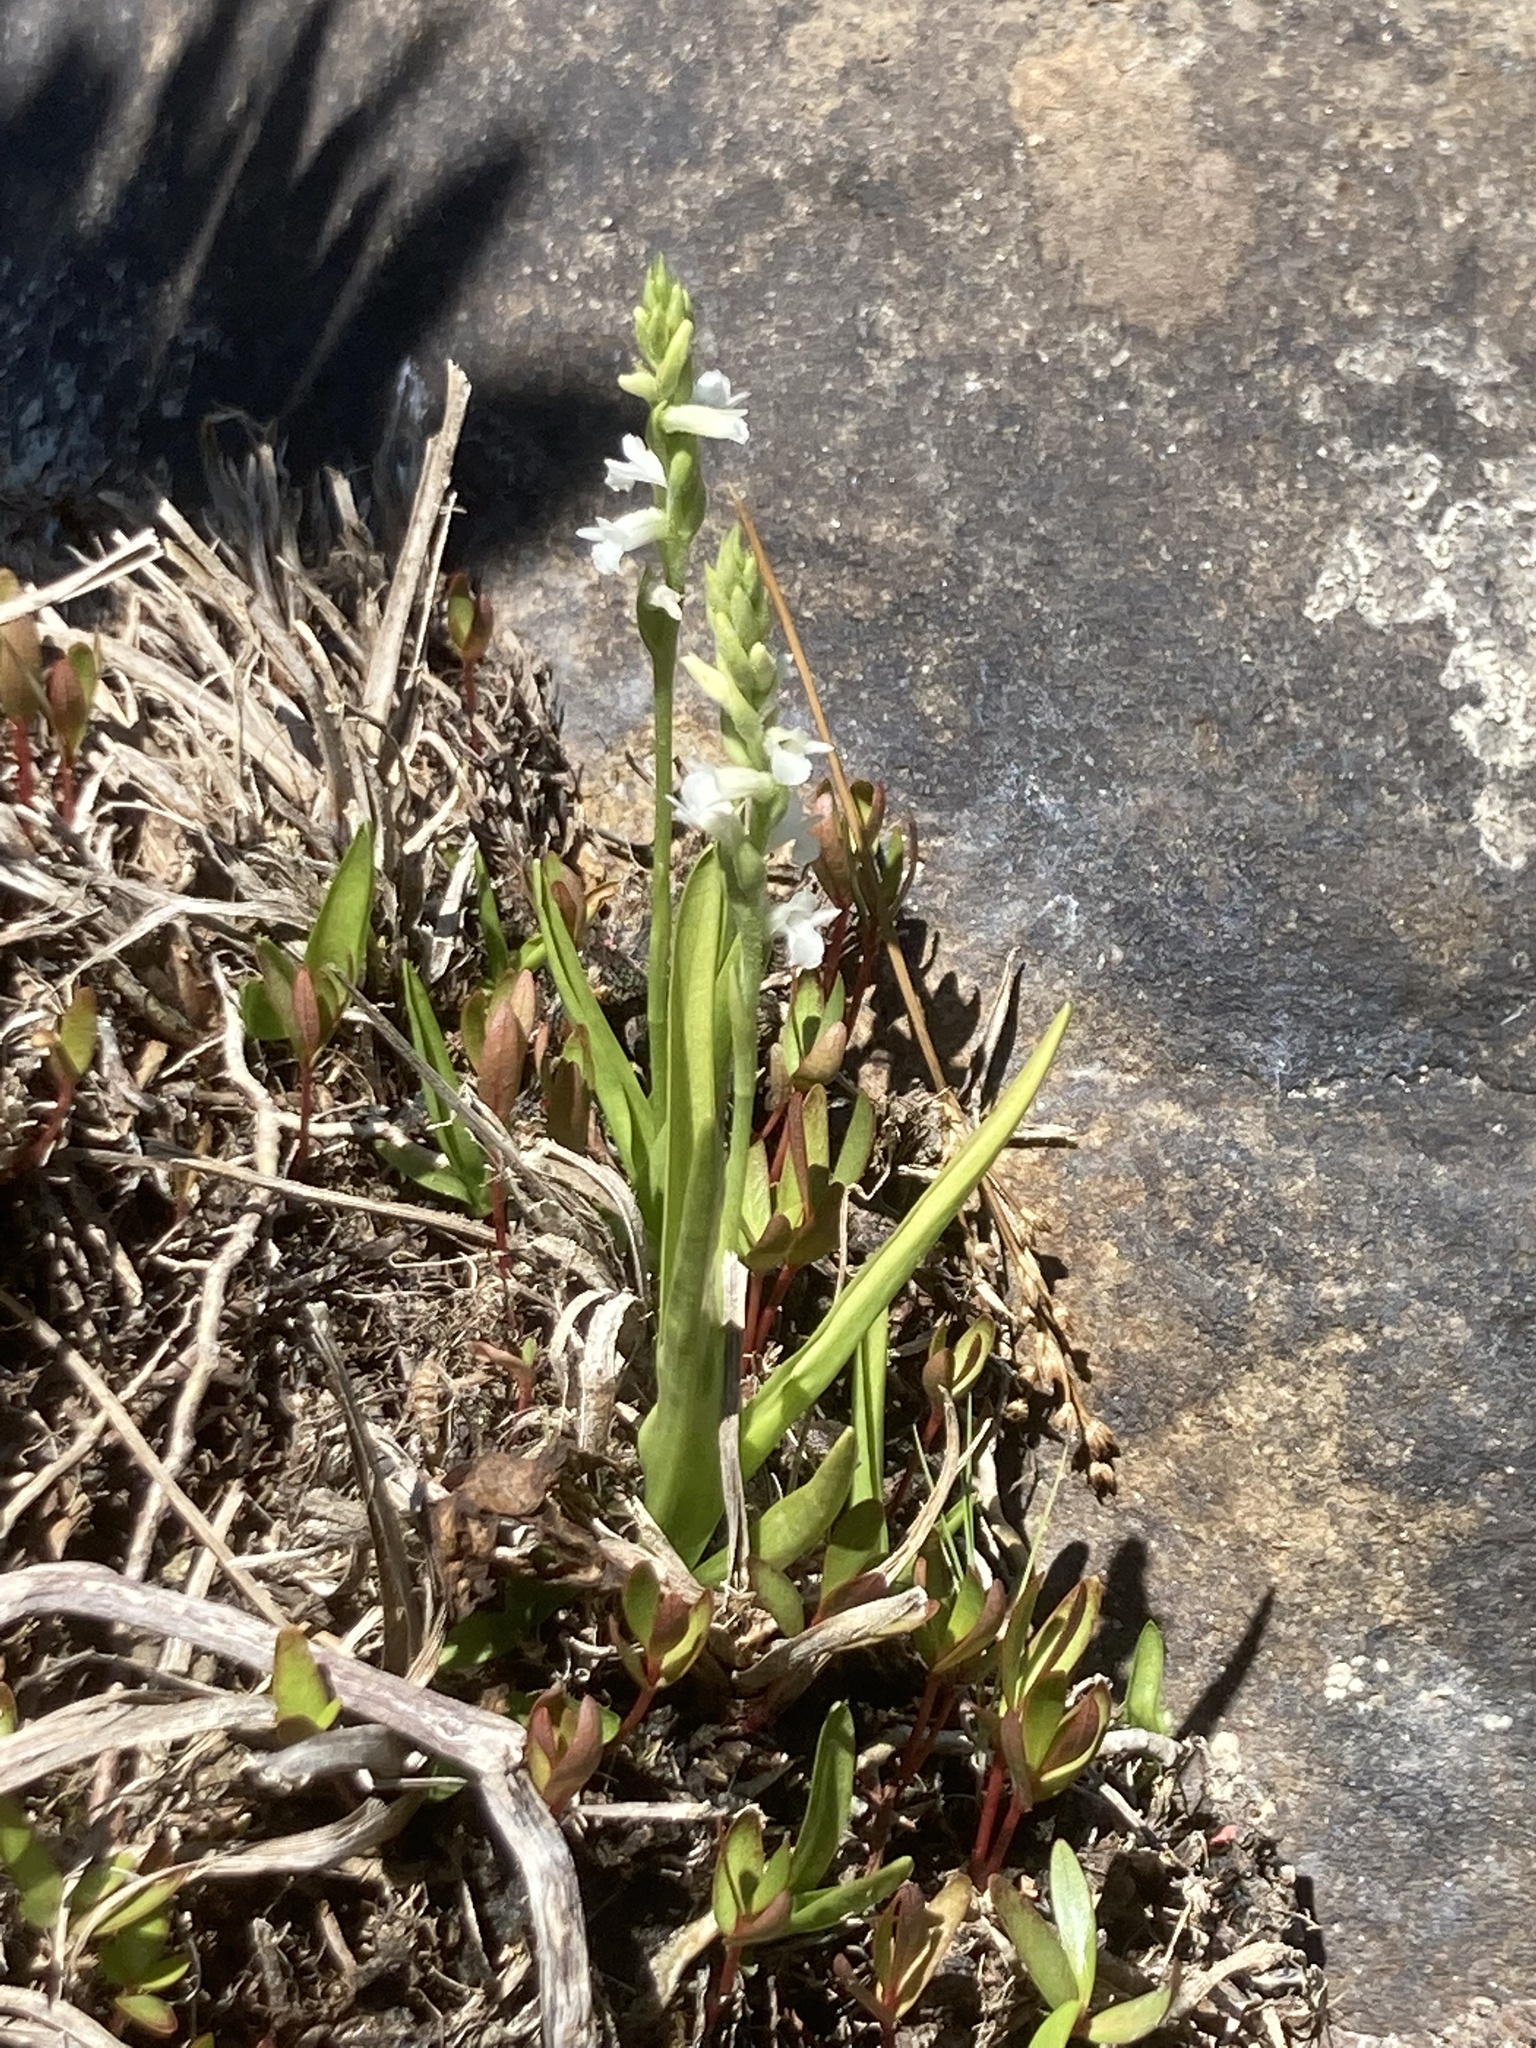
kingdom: Plantae
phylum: Tracheophyta
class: Liliopsida
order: Asparagales
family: Orchidaceae
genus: Spiranthes
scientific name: Spiranthes aestivalis
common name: Summer lady's-tresses
